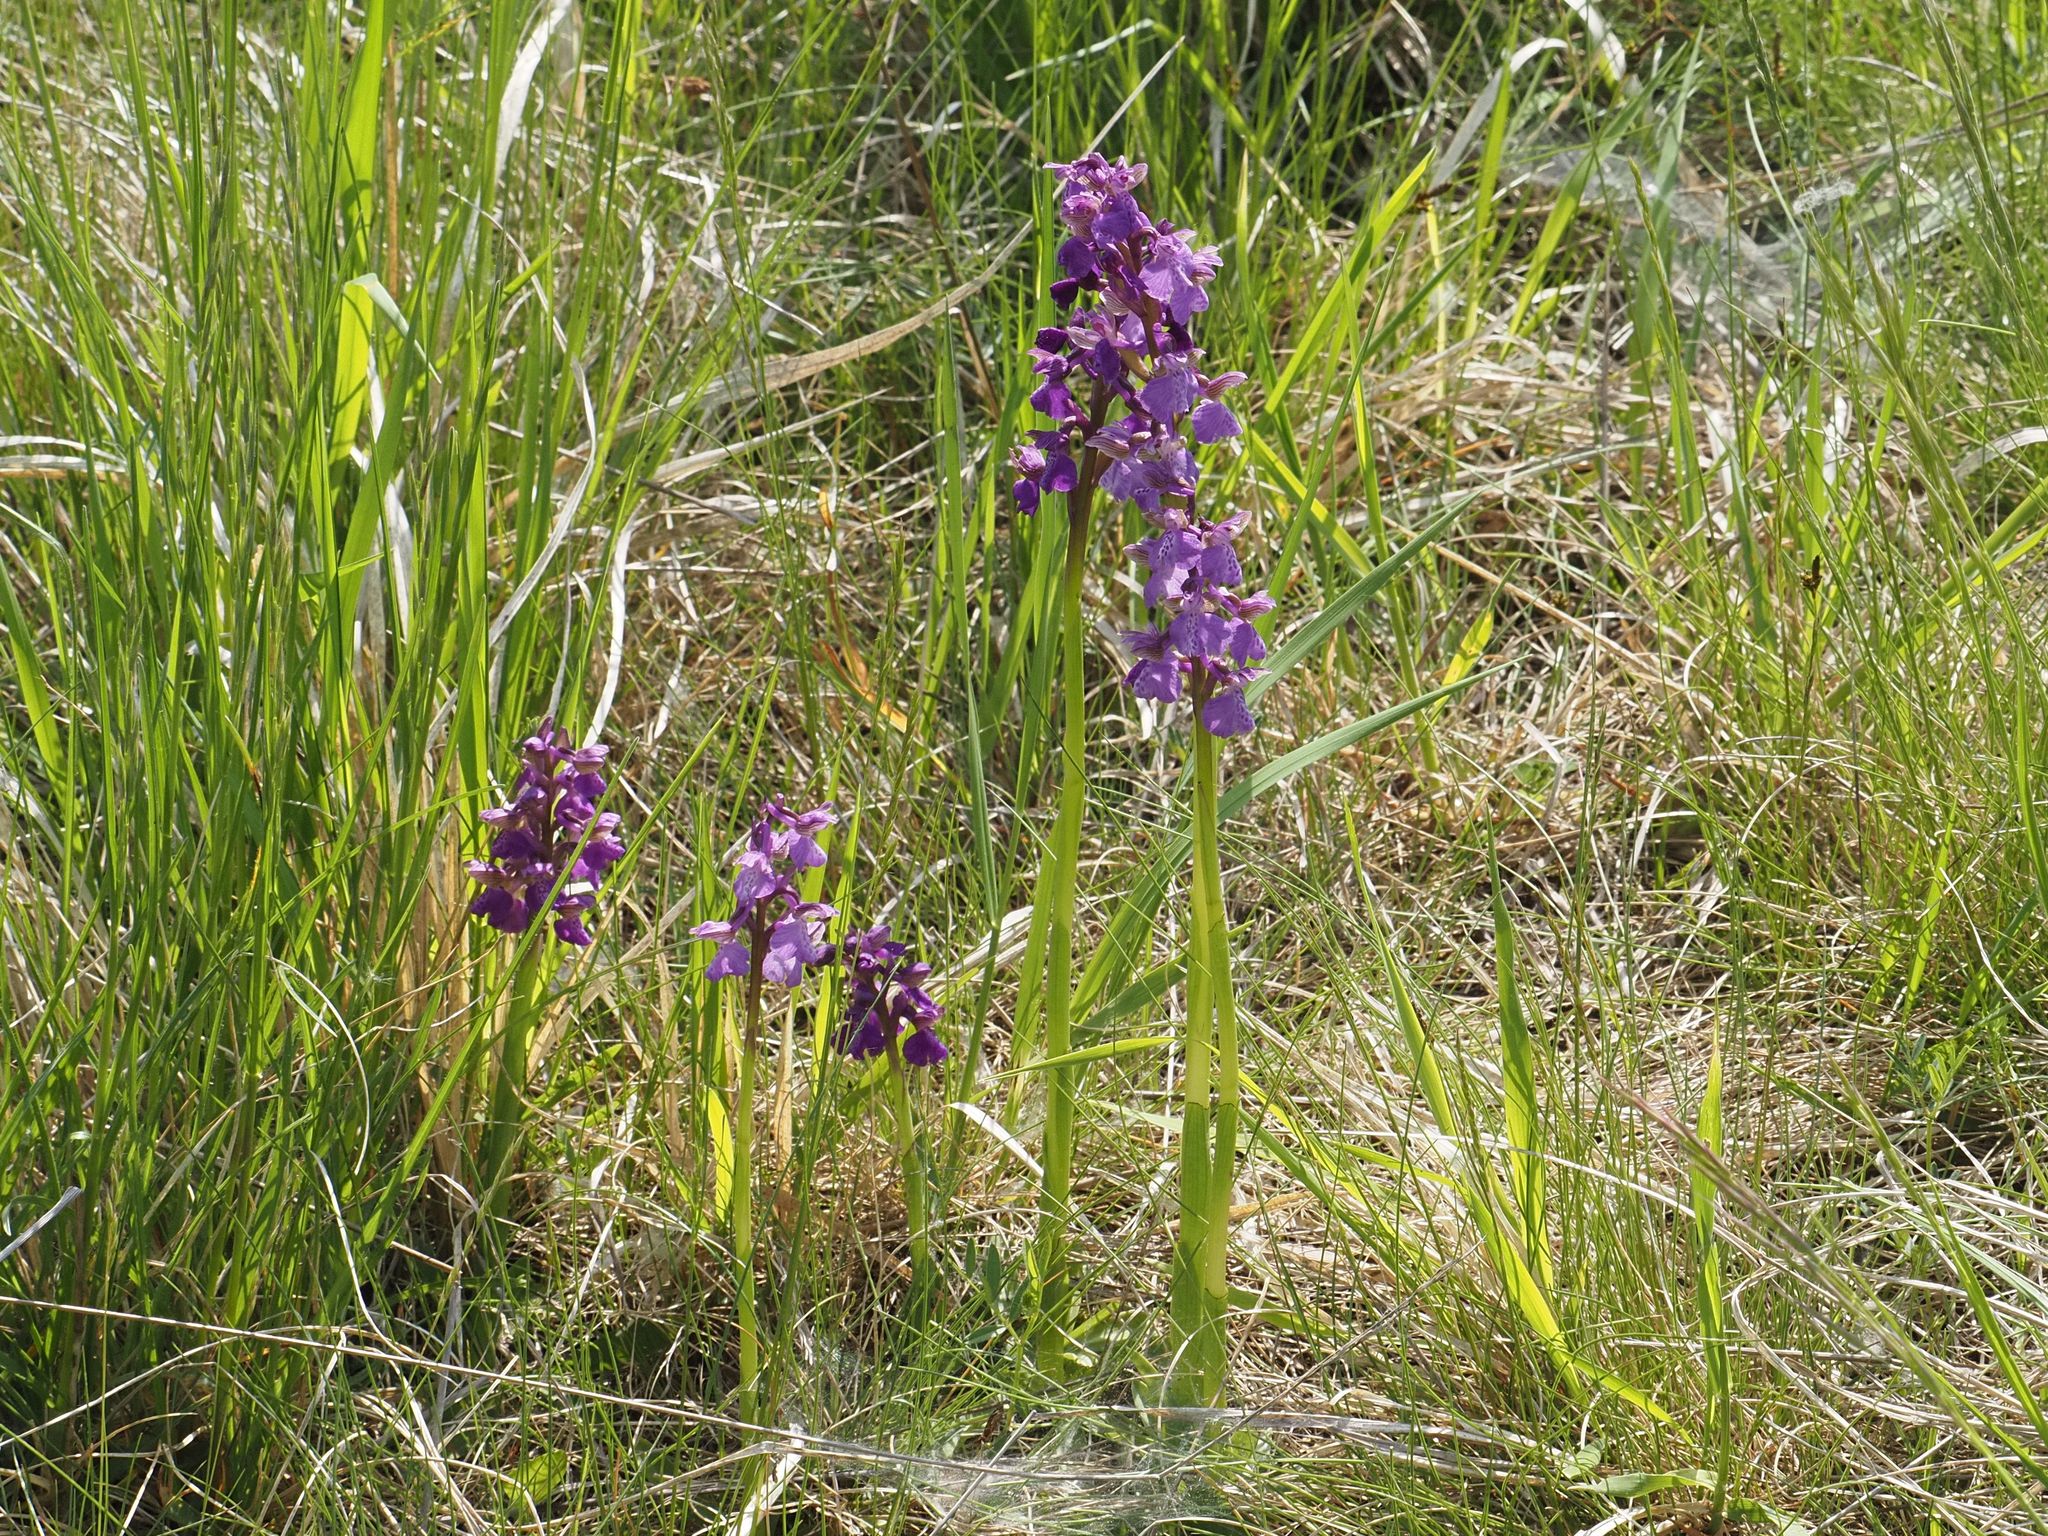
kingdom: Plantae
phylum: Tracheophyta
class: Liliopsida
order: Asparagales
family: Orchidaceae
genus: Anacamptis
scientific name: Anacamptis morio
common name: Green-winged orchid
